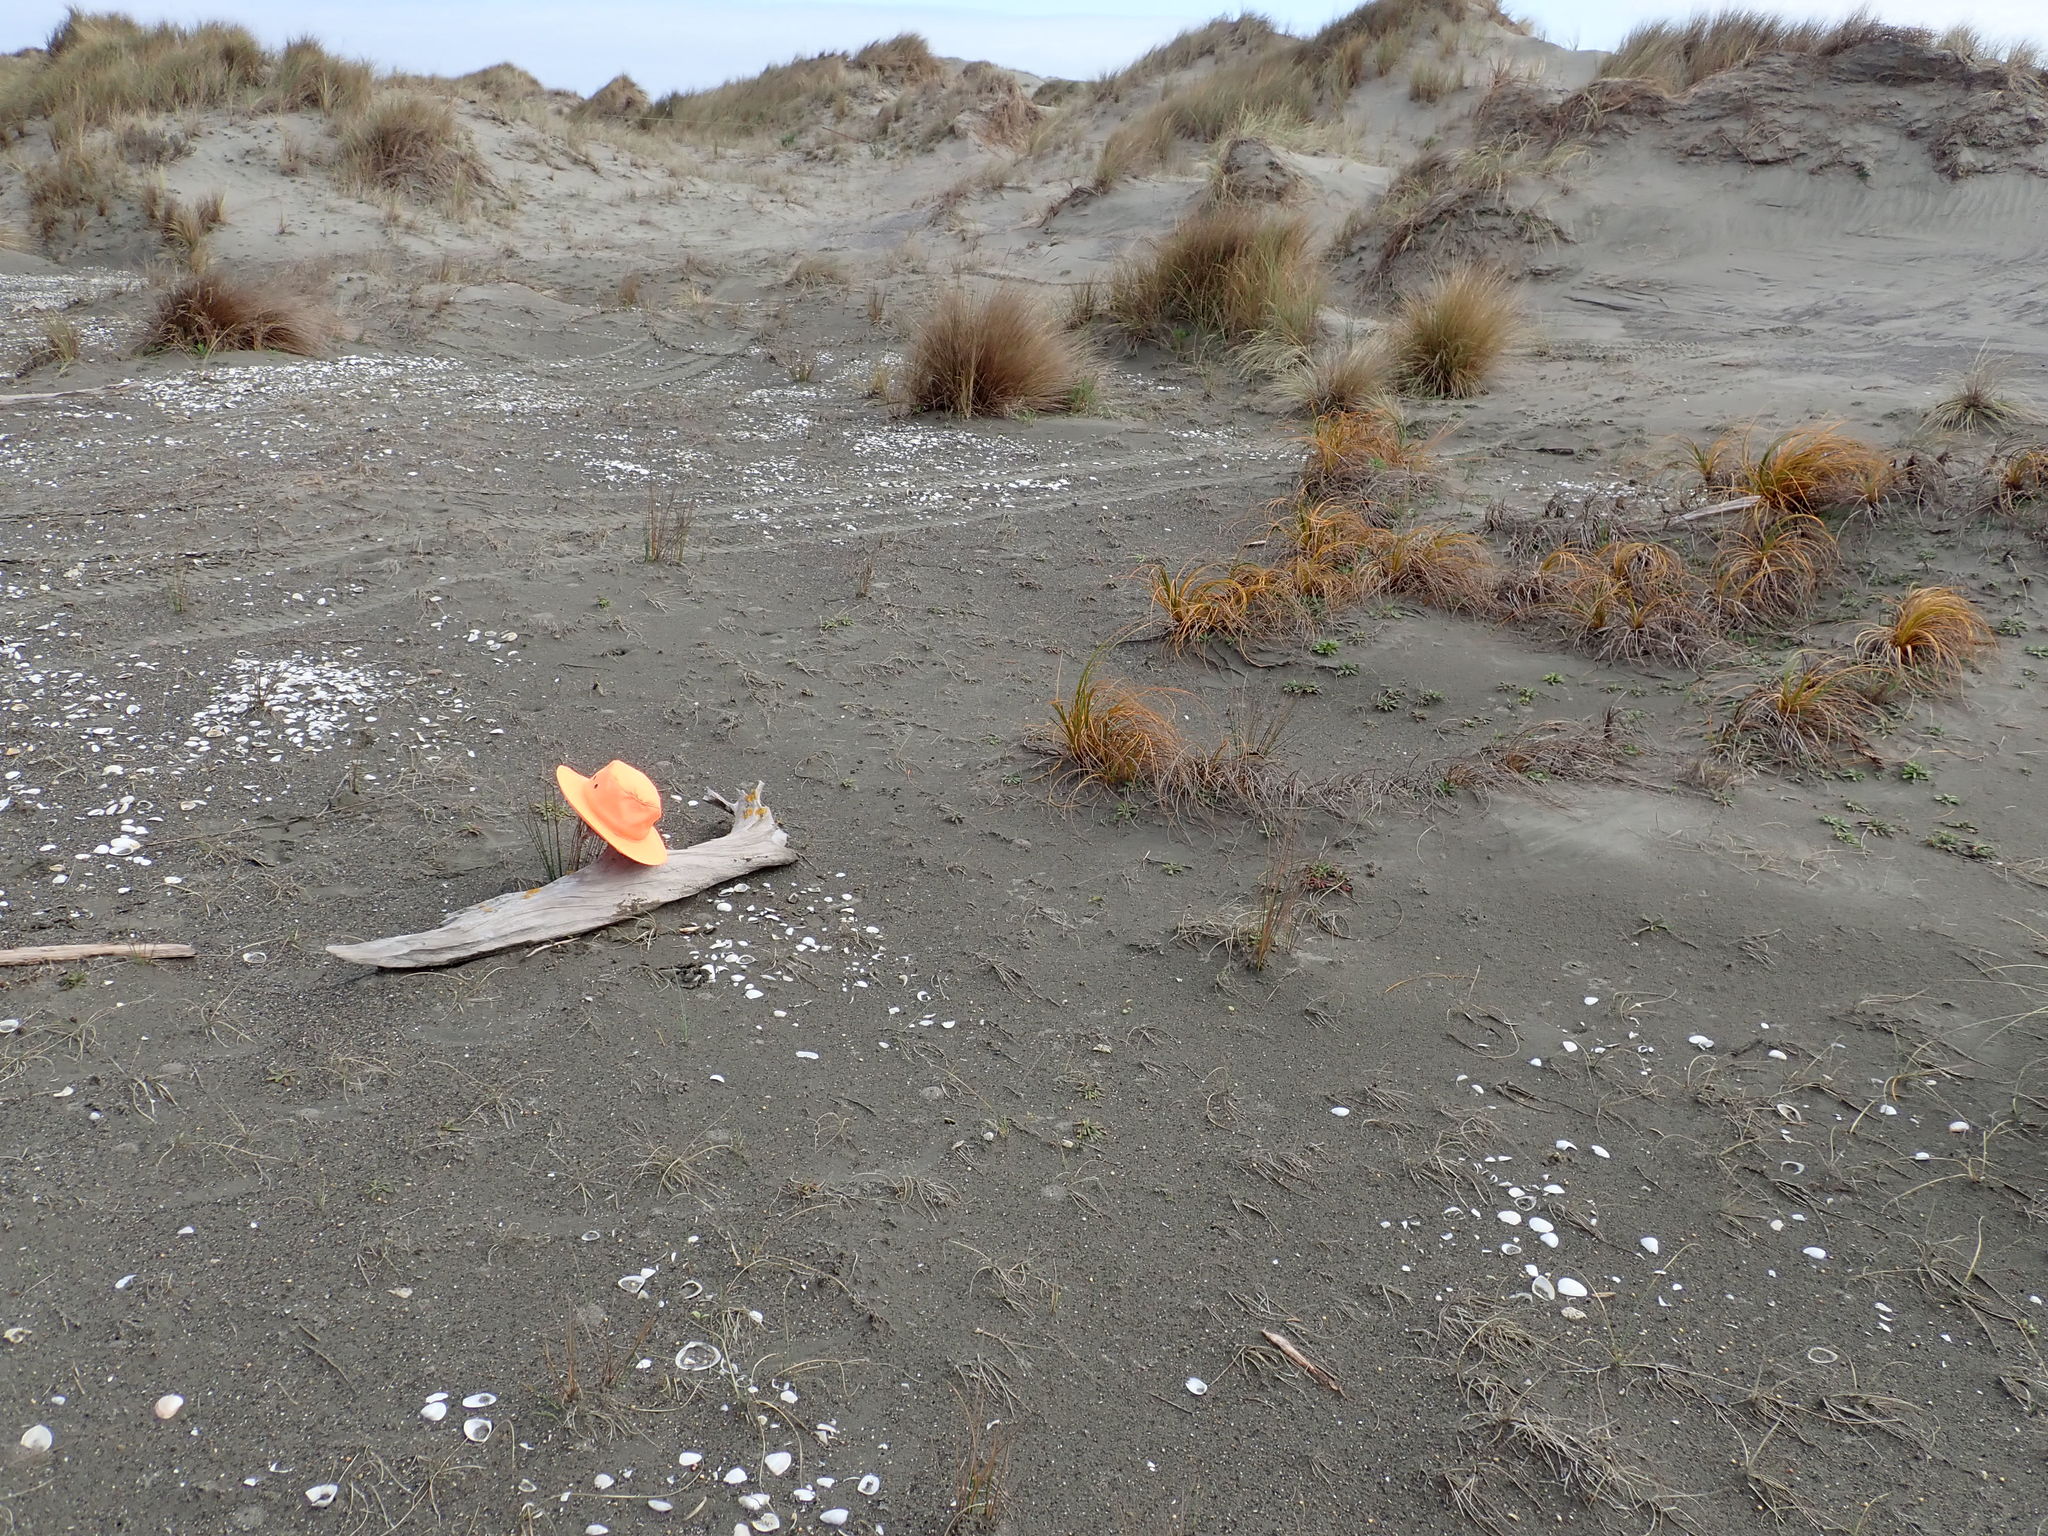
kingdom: Animalia
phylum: Arthropoda
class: Insecta
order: Dermaptera
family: Anisolabididae
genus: Anisolabis
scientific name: Anisolabis littorea
